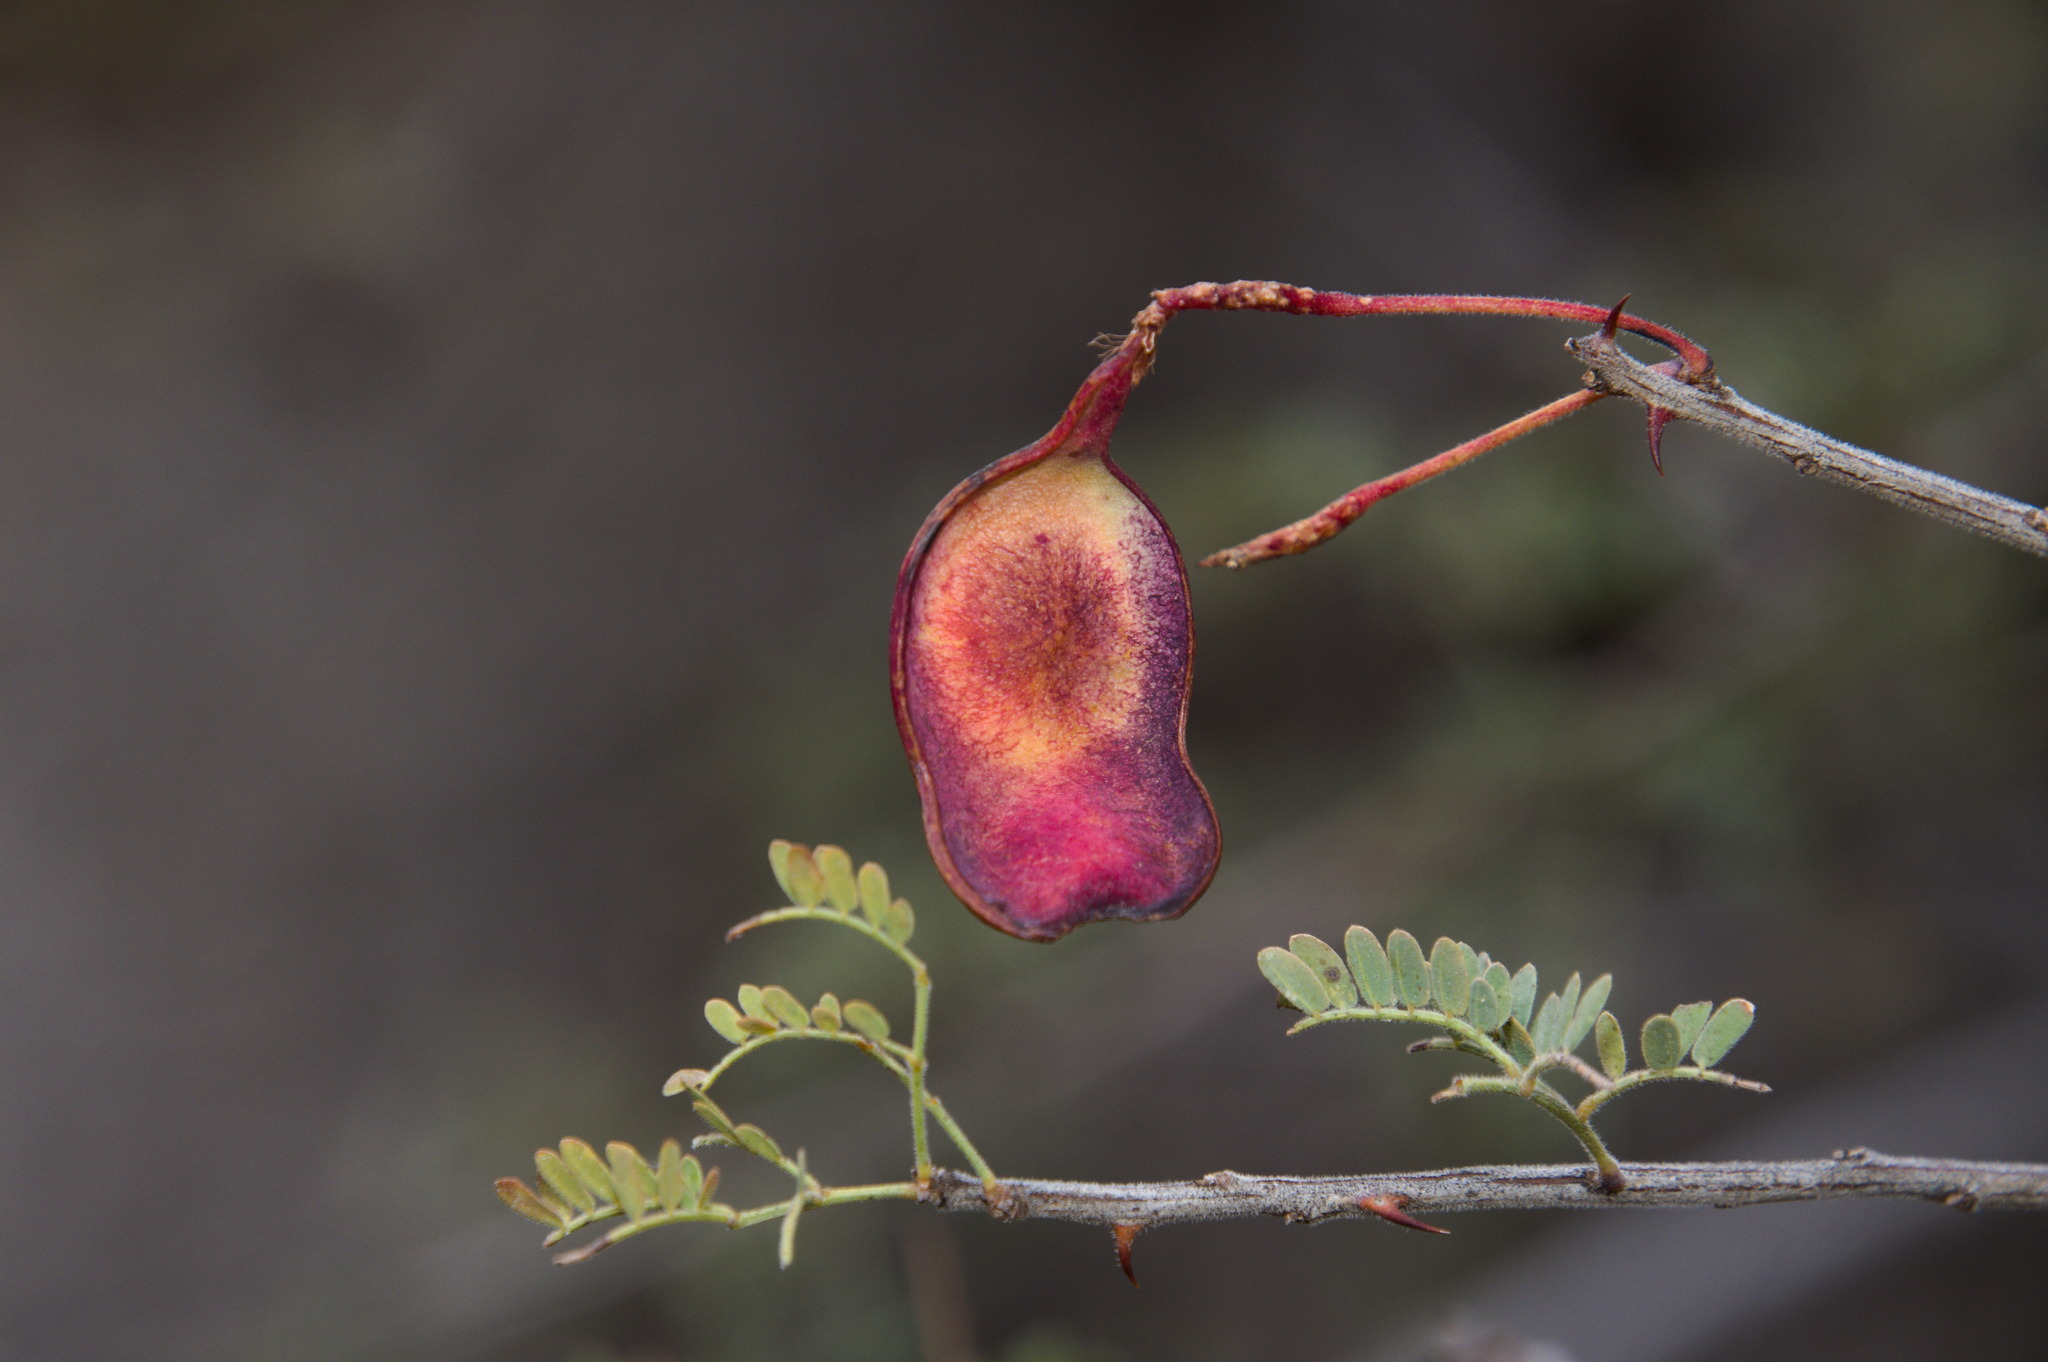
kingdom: Plantae
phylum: Tracheophyta
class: Magnoliopsida
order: Fabales
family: Fabaceae
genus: Senegalia
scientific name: Senegalia greggii
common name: Texas-mimosa
